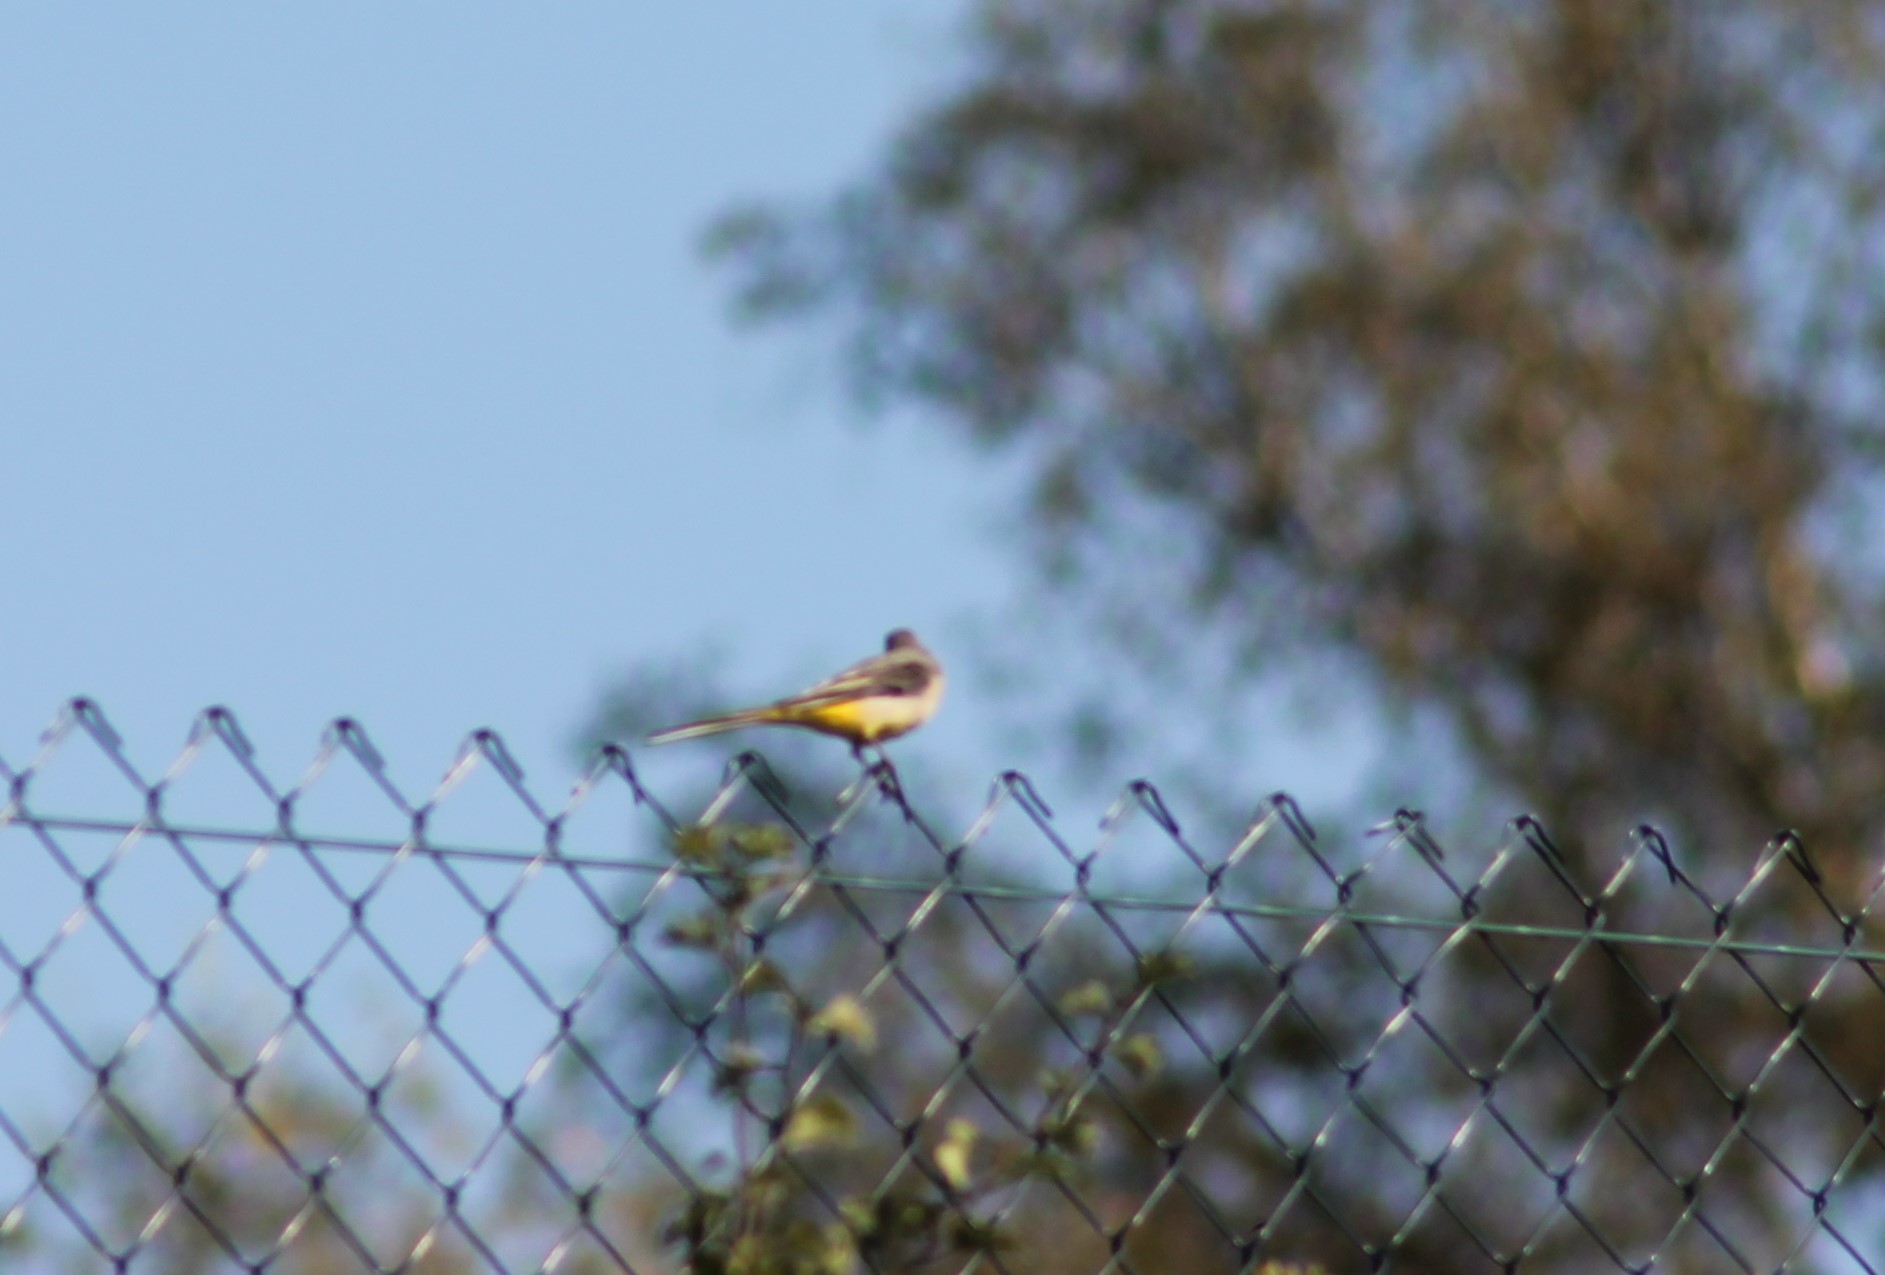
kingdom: Animalia
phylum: Chordata
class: Aves
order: Passeriformes
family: Motacillidae
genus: Motacilla
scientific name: Motacilla cinerea
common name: Grey wagtail
